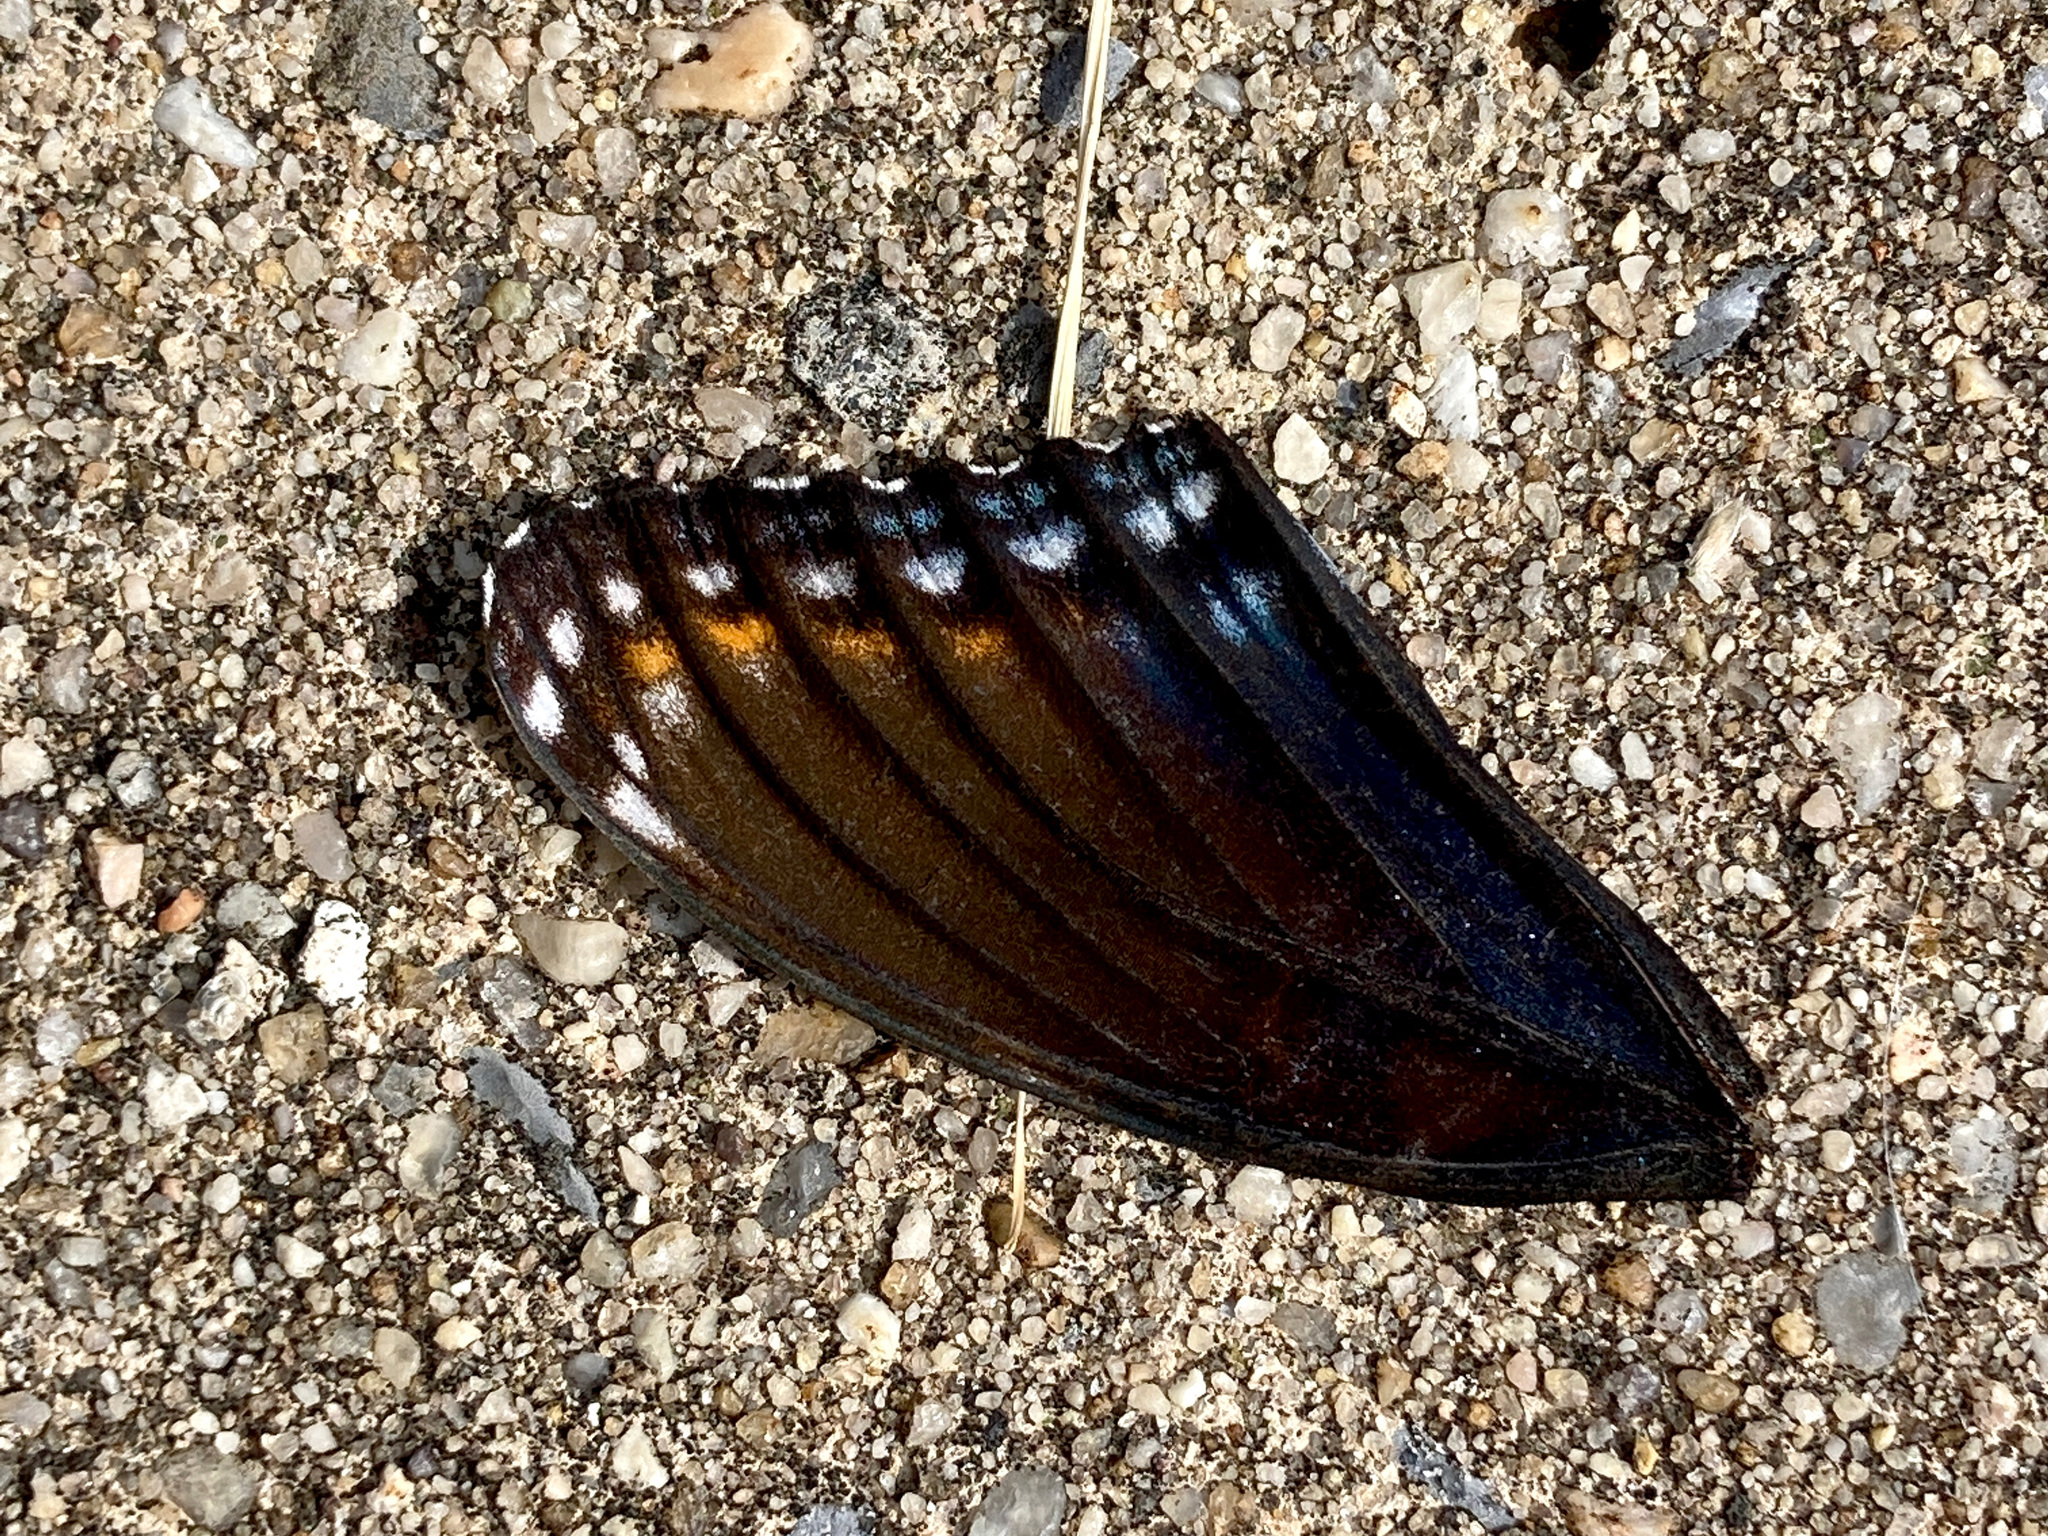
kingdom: Animalia
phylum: Arthropoda
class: Insecta
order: Lepidoptera
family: Nymphalidae
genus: Limenitis
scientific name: Limenitis astyanax
